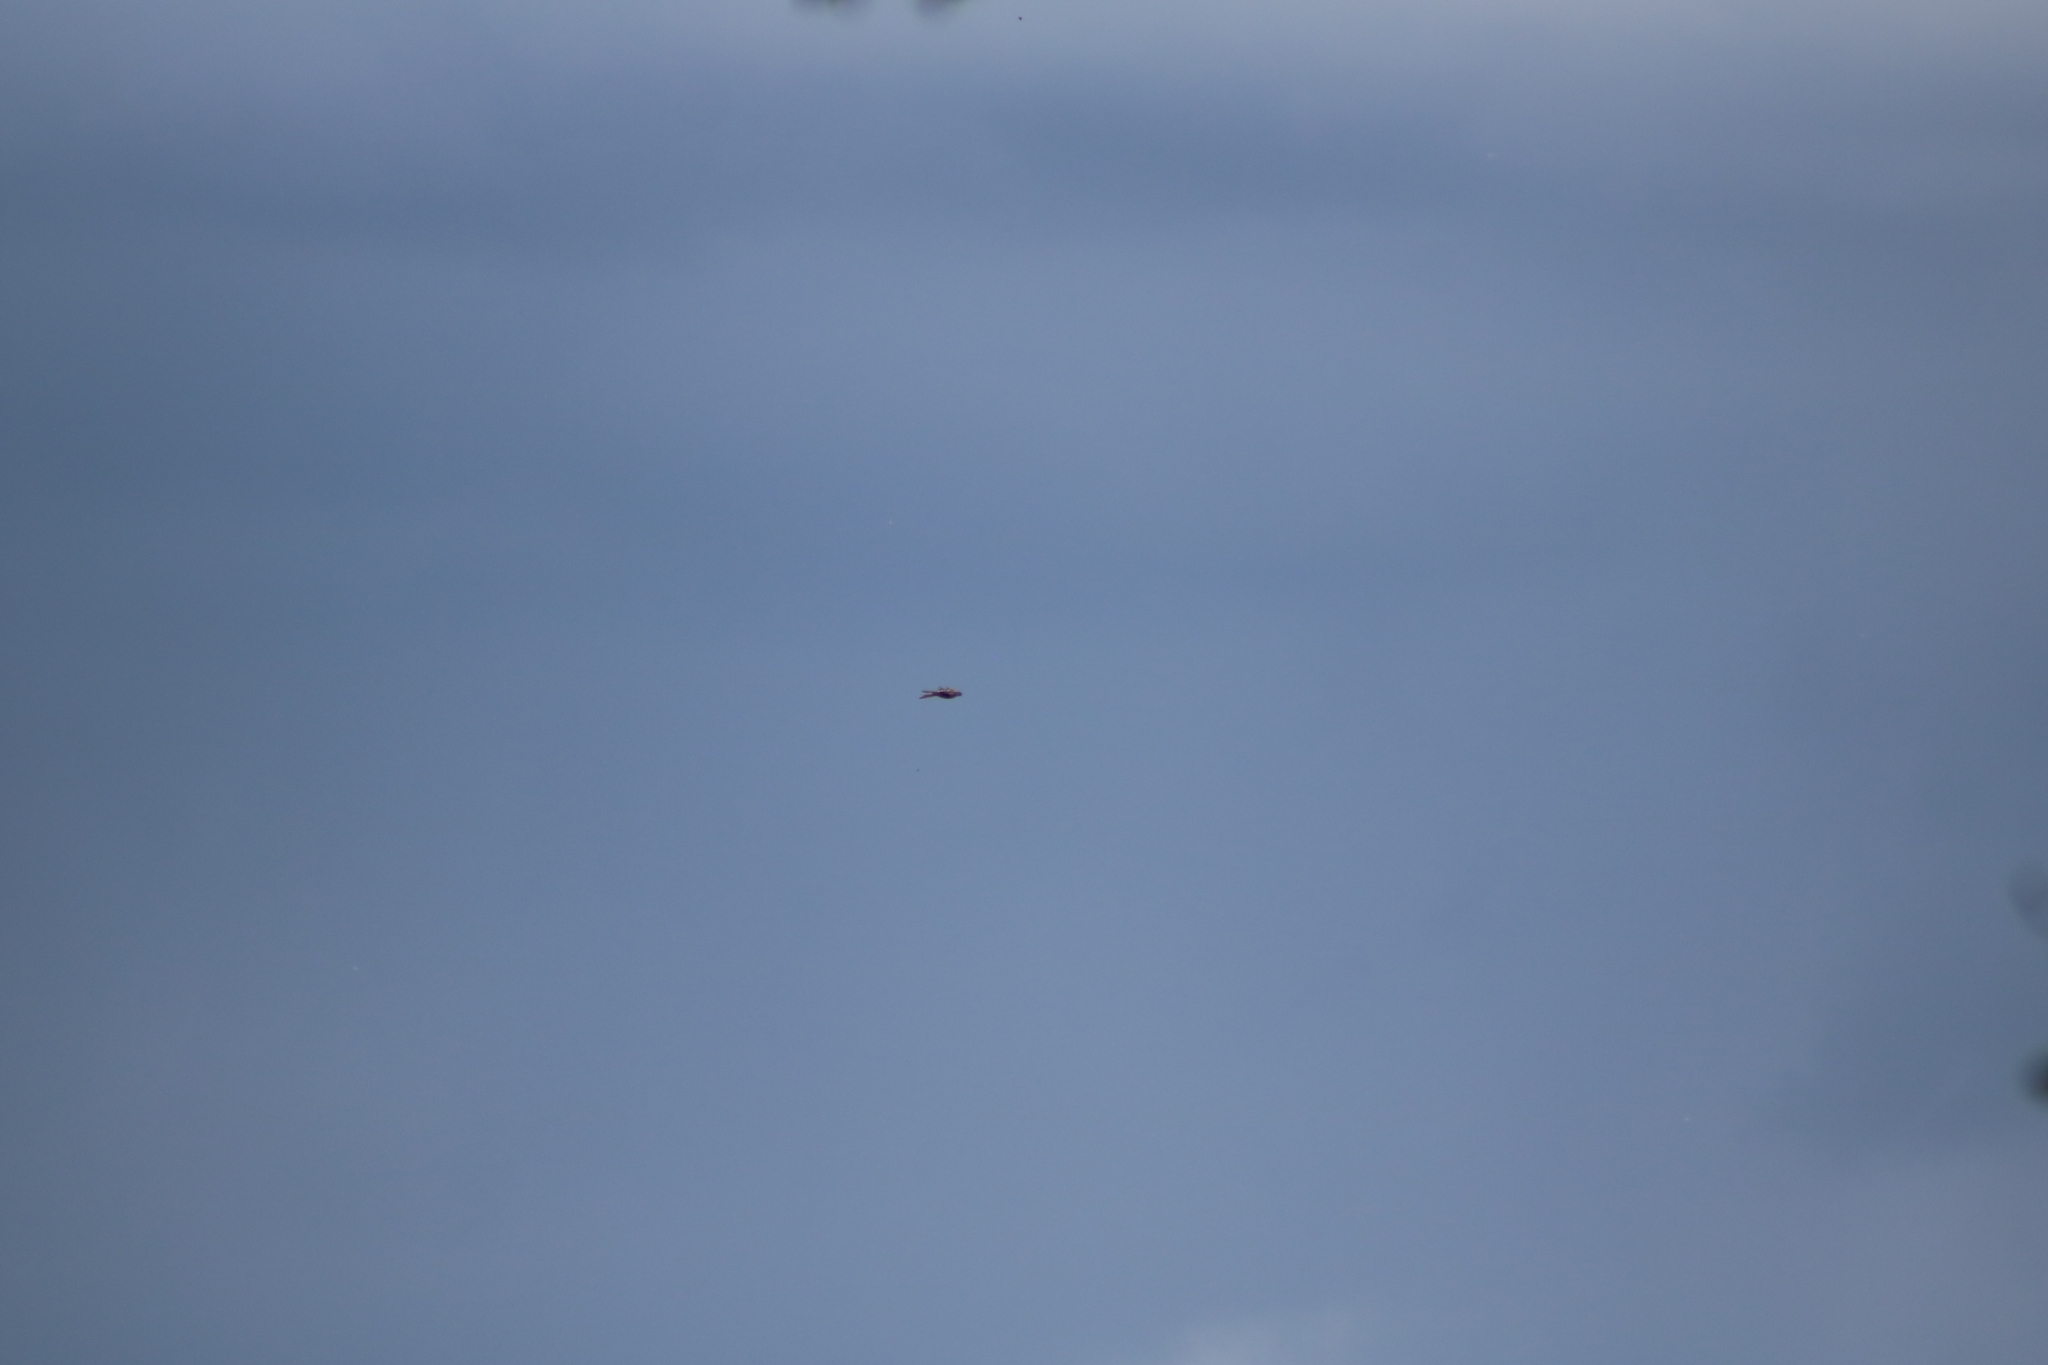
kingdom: Animalia
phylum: Chordata
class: Aves
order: Accipitriformes
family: Accipitridae
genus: Milvus
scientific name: Milvus milvus
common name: Red kite
